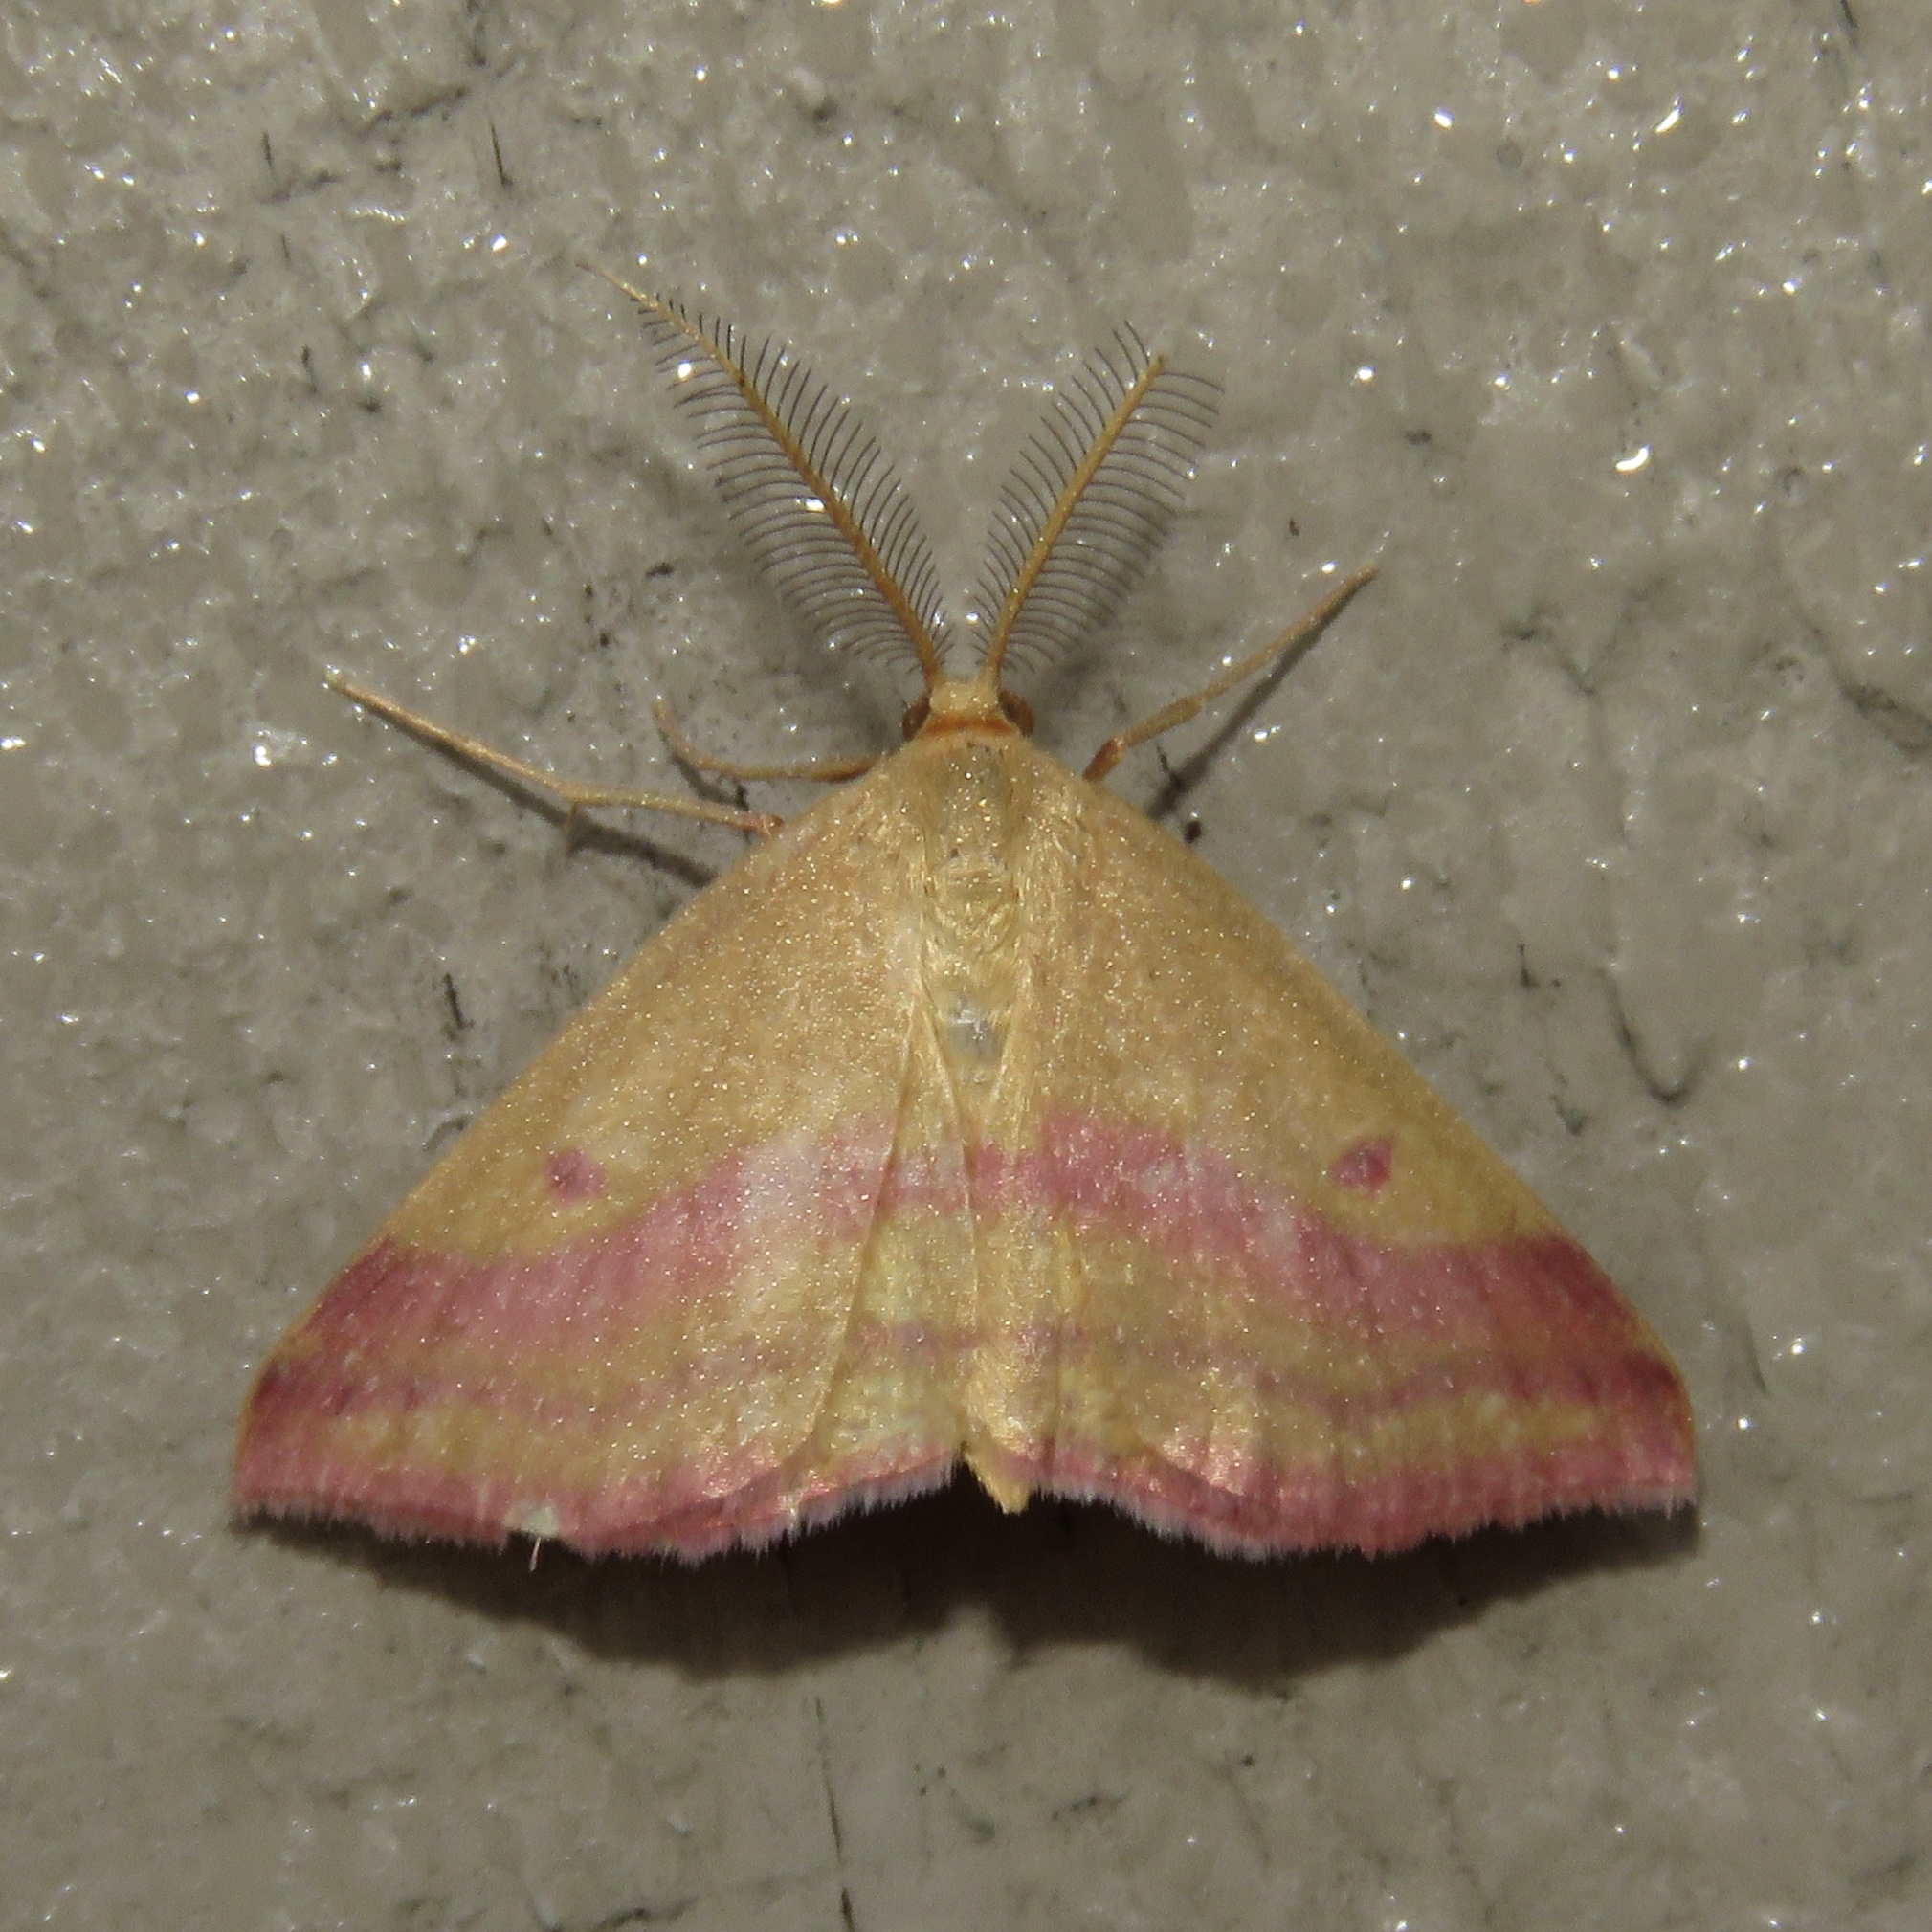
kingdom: Animalia
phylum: Arthropoda
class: Insecta
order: Lepidoptera
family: Geometridae
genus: Haematopis
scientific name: Haematopis grataria
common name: Chickweed geometer
